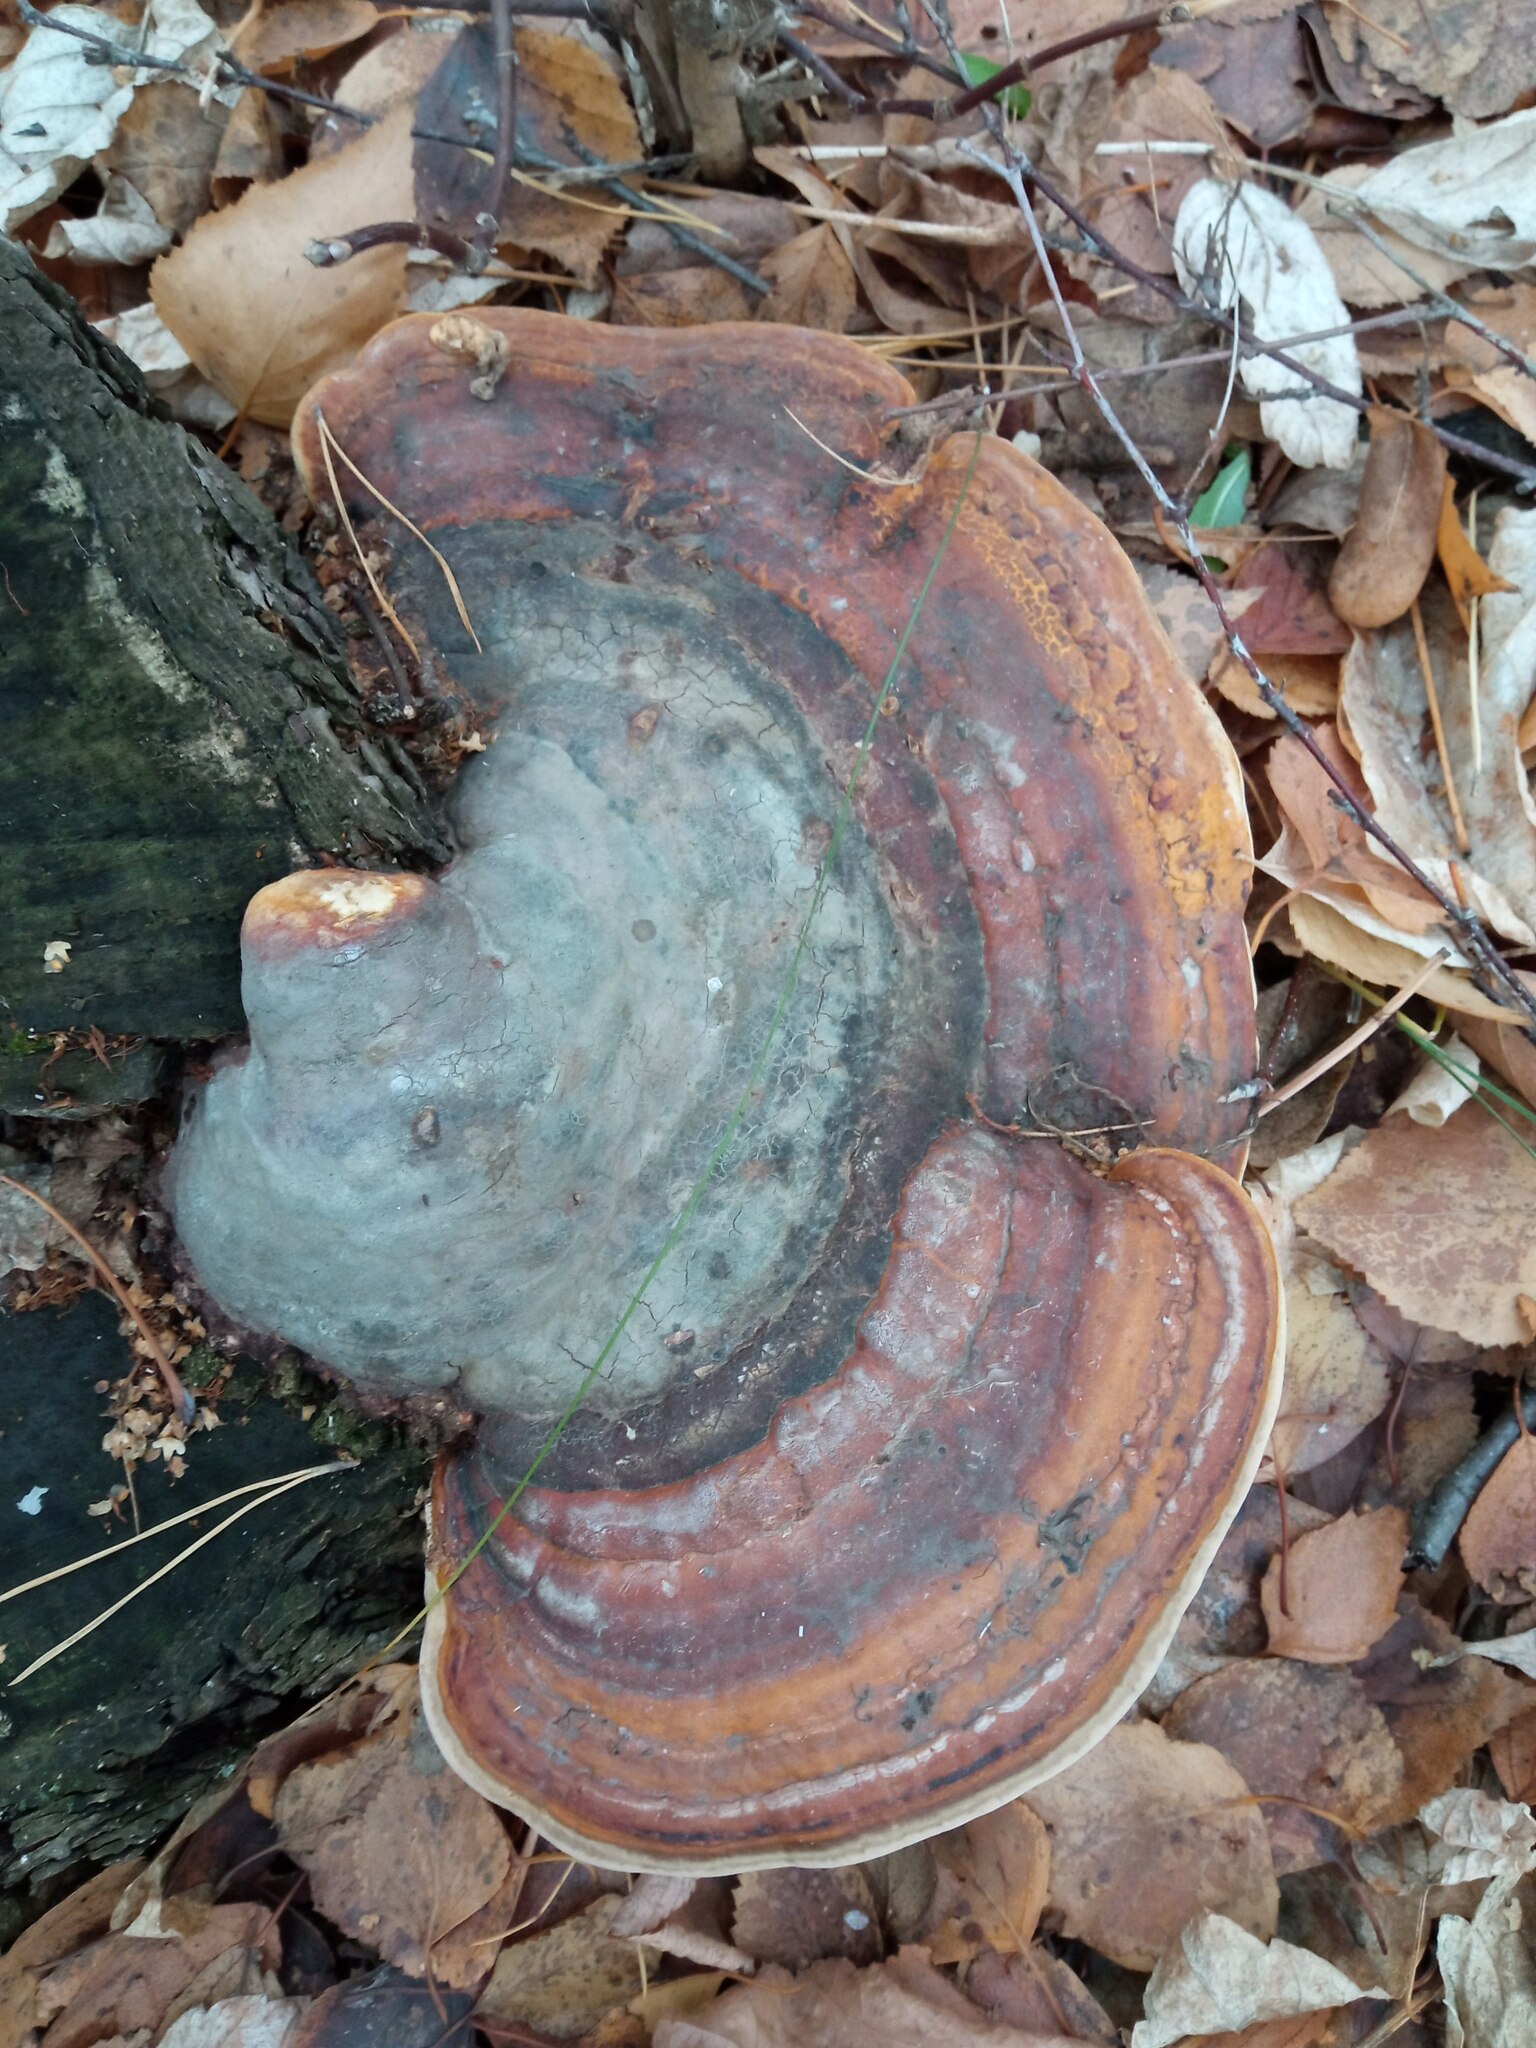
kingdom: Fungi
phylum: Basidiomycota
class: Agaricomycetes
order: Polyporales
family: Fomitopsidaceae
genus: Fomitopsis
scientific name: Fomitopsis pinicola
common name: Red-belted bracket
